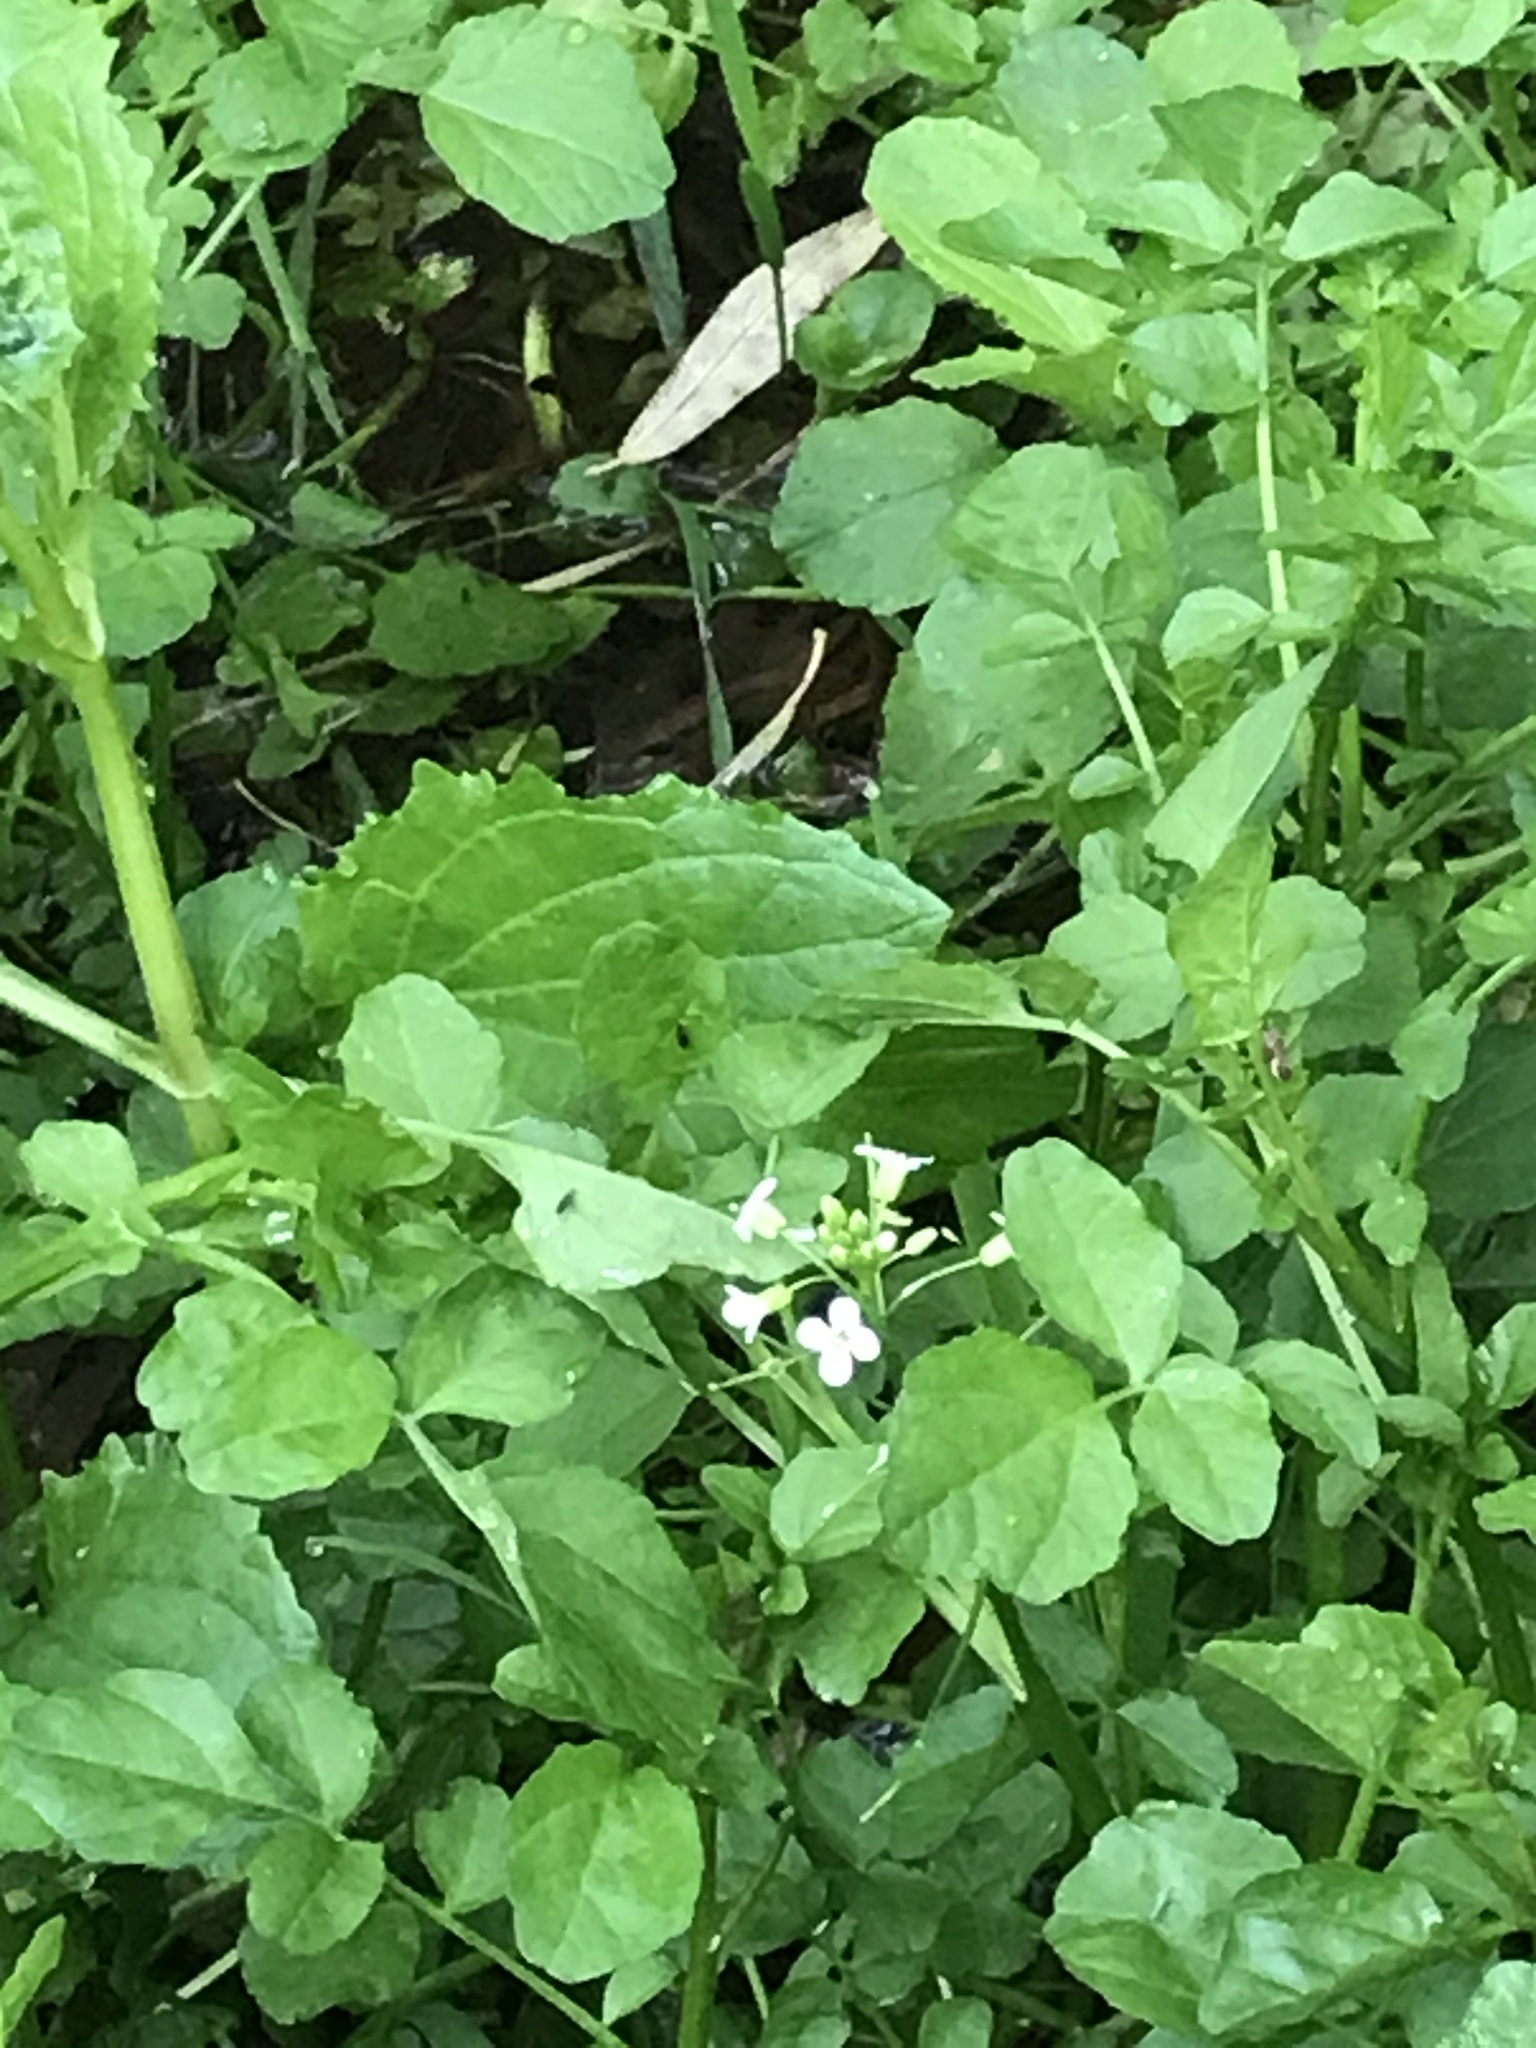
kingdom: Plantae
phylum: Tracheophyta
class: Magnoliopsida
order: Brassicales
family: Brassicaceae
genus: Nasturtium
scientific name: Nasturtium officinale
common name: Watercress
